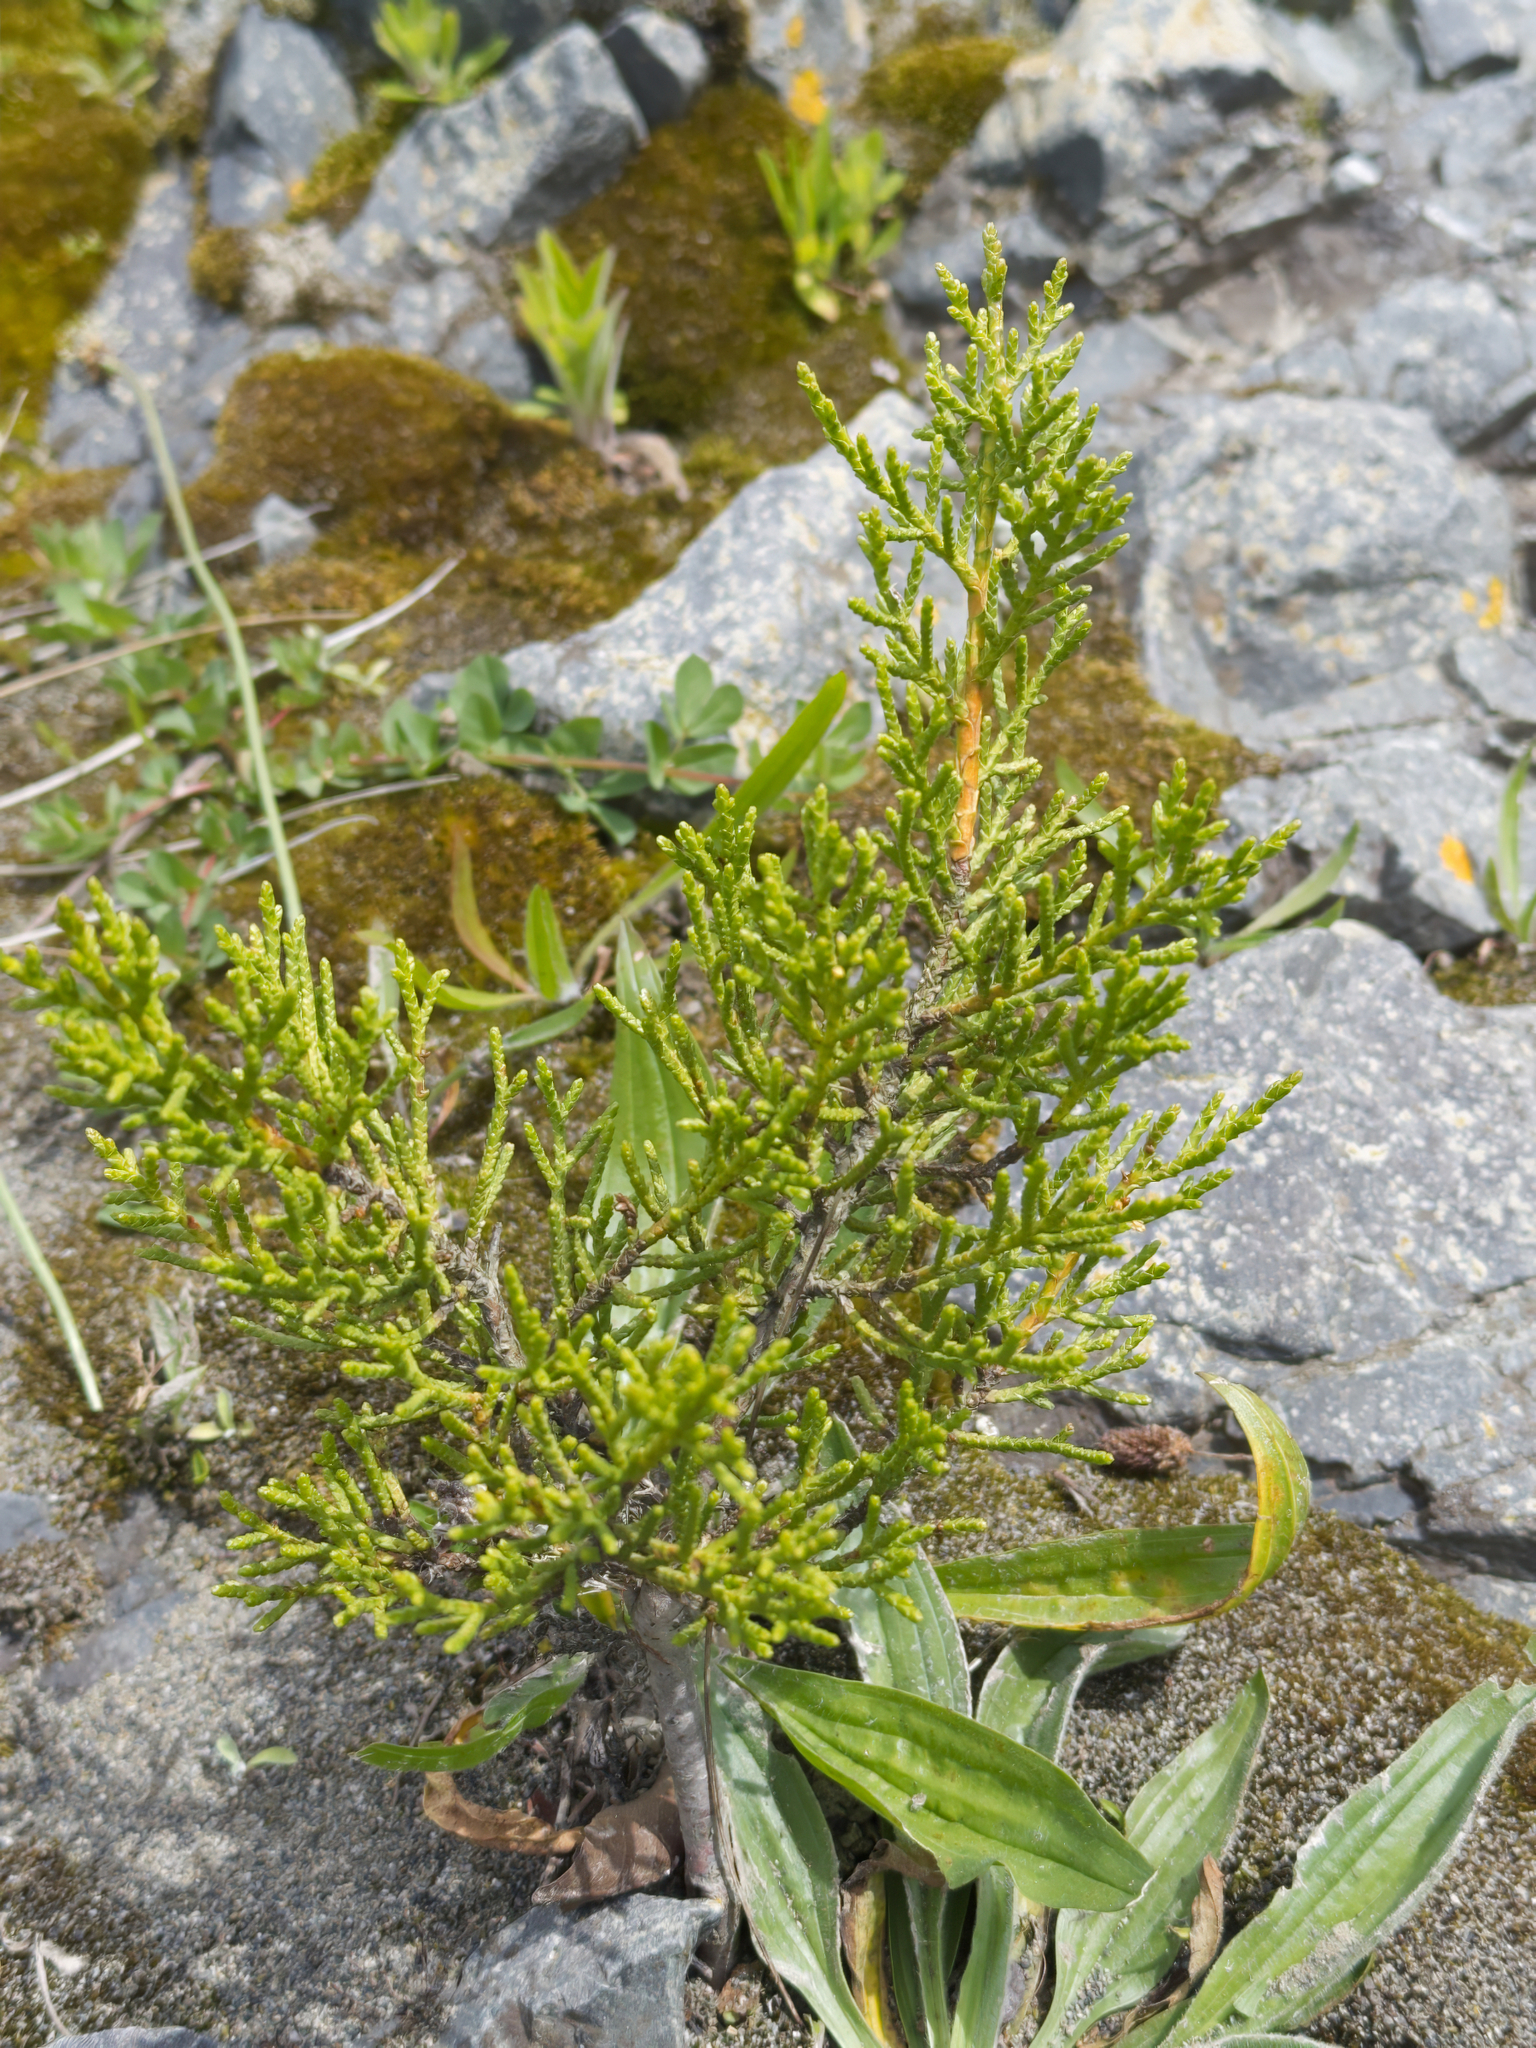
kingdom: Plantae
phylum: Tracheophyta
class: Pinopsida
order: Pinales
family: Cupressaceae
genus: Cupressus
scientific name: Cupressus macrocarpa
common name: Monterey cypress
